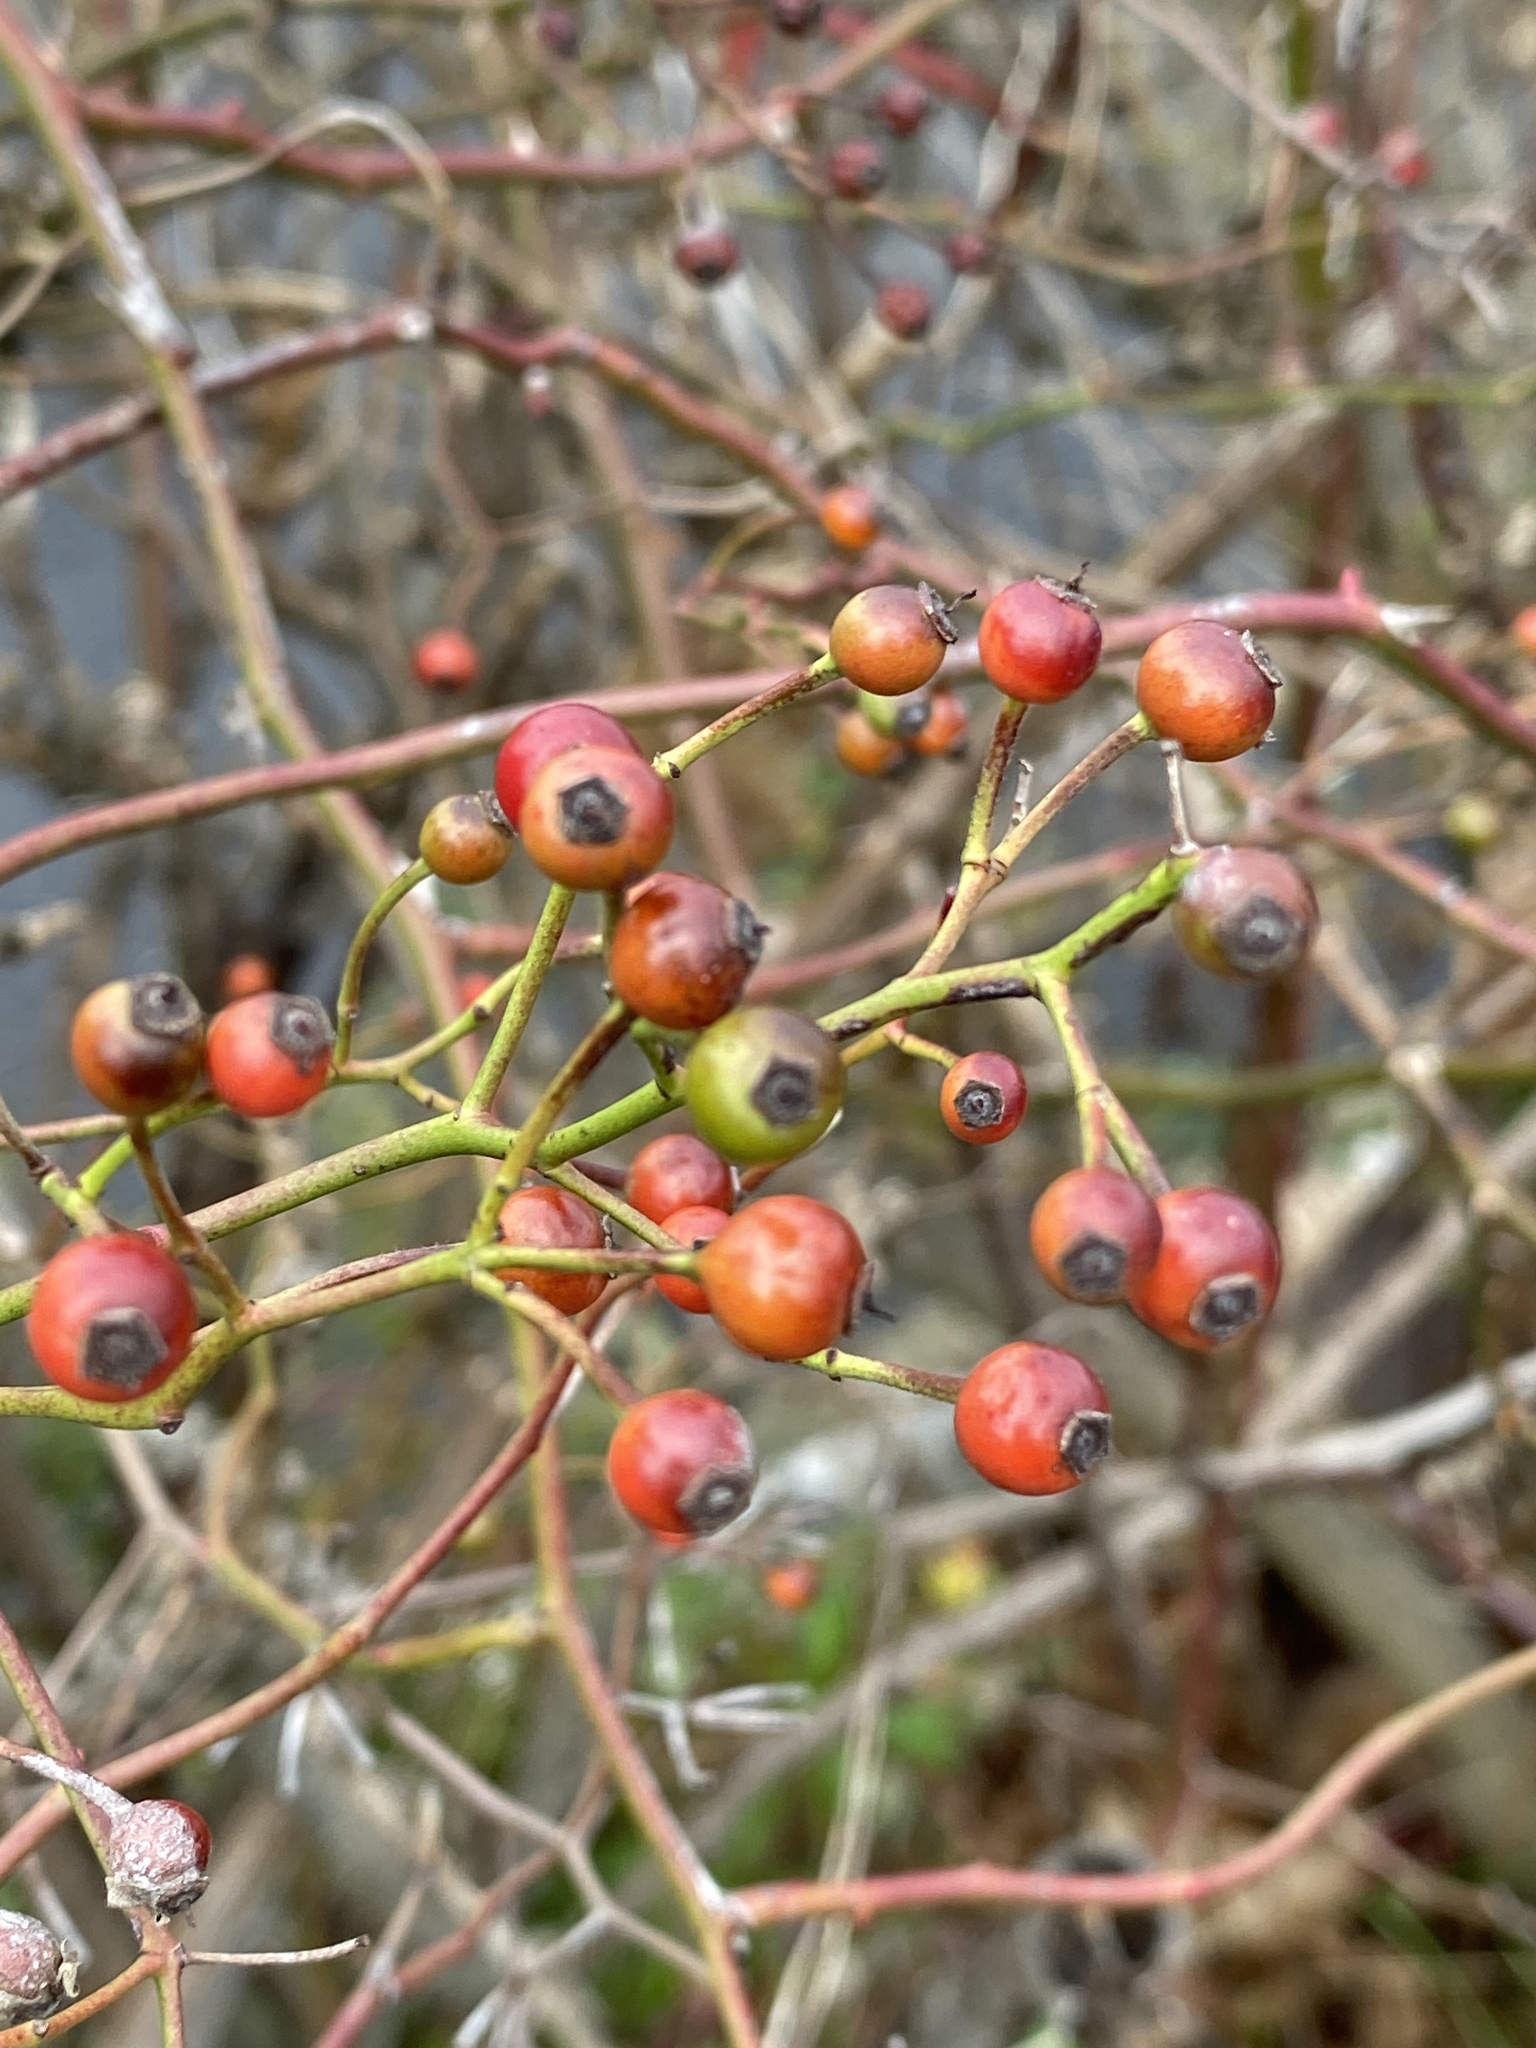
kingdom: Plantae
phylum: Tracheophyta
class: Magnoliopsida
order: Rosales
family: Rosaceae
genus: Rosa
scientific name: Rosa multiflora
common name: Multiflora rose
